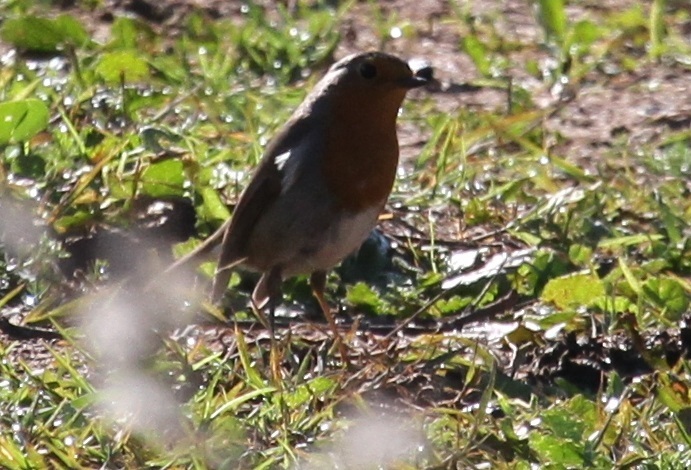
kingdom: Animalia
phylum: Chordata
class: Aves
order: Passeriformes
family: Muscicapidae
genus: Erithacus
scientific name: Erithacus rubecula
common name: European robin
